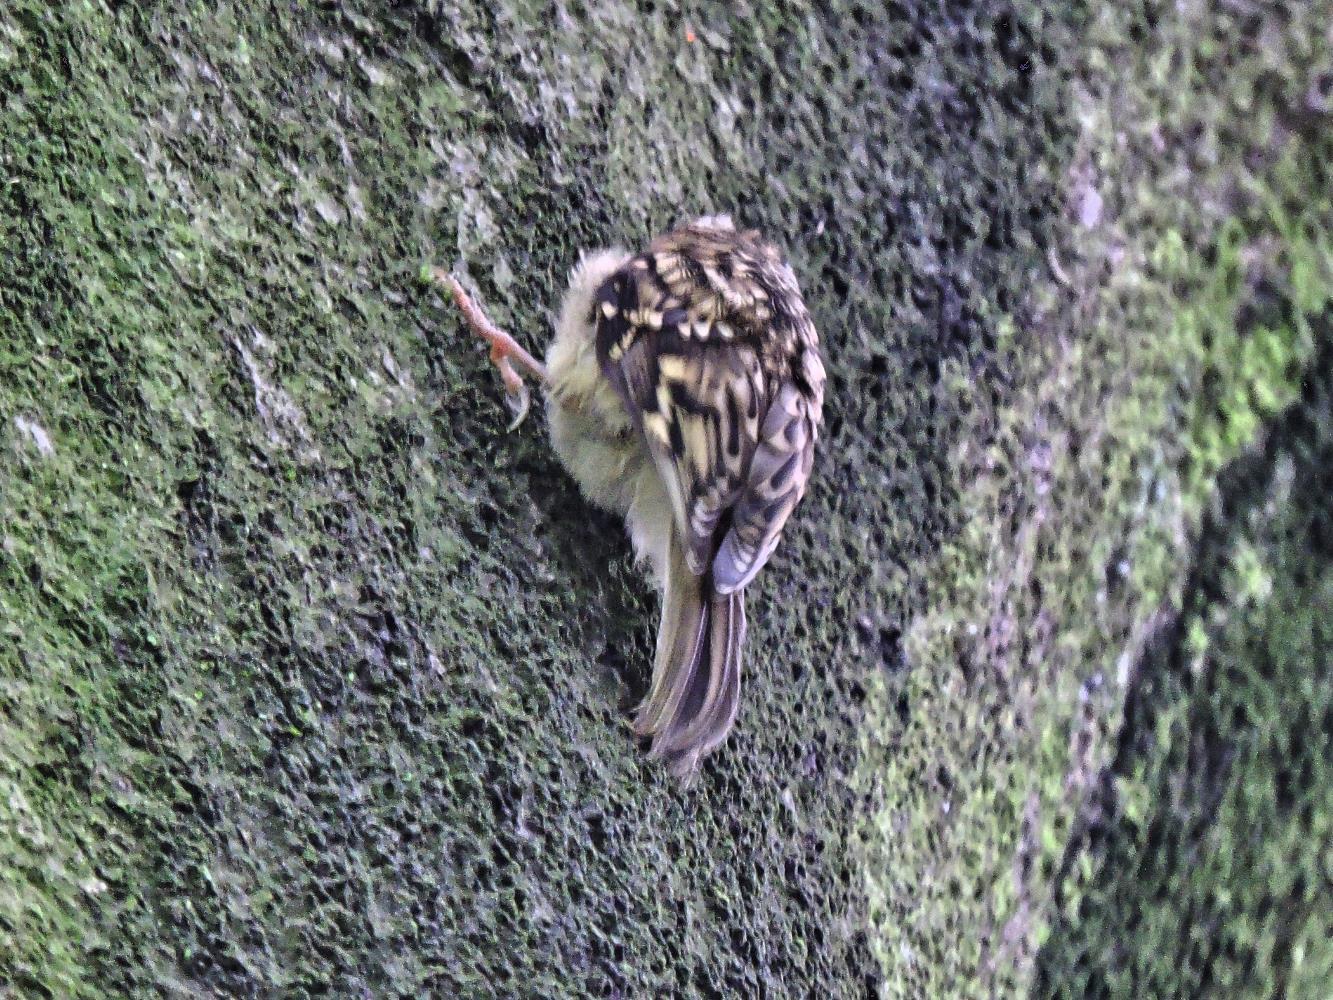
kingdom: Animalia
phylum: Chordata
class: Aves
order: Passeriformes
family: Certhiidae
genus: Certhia
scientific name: Certhia familiaris
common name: Eurasian treecreeper
